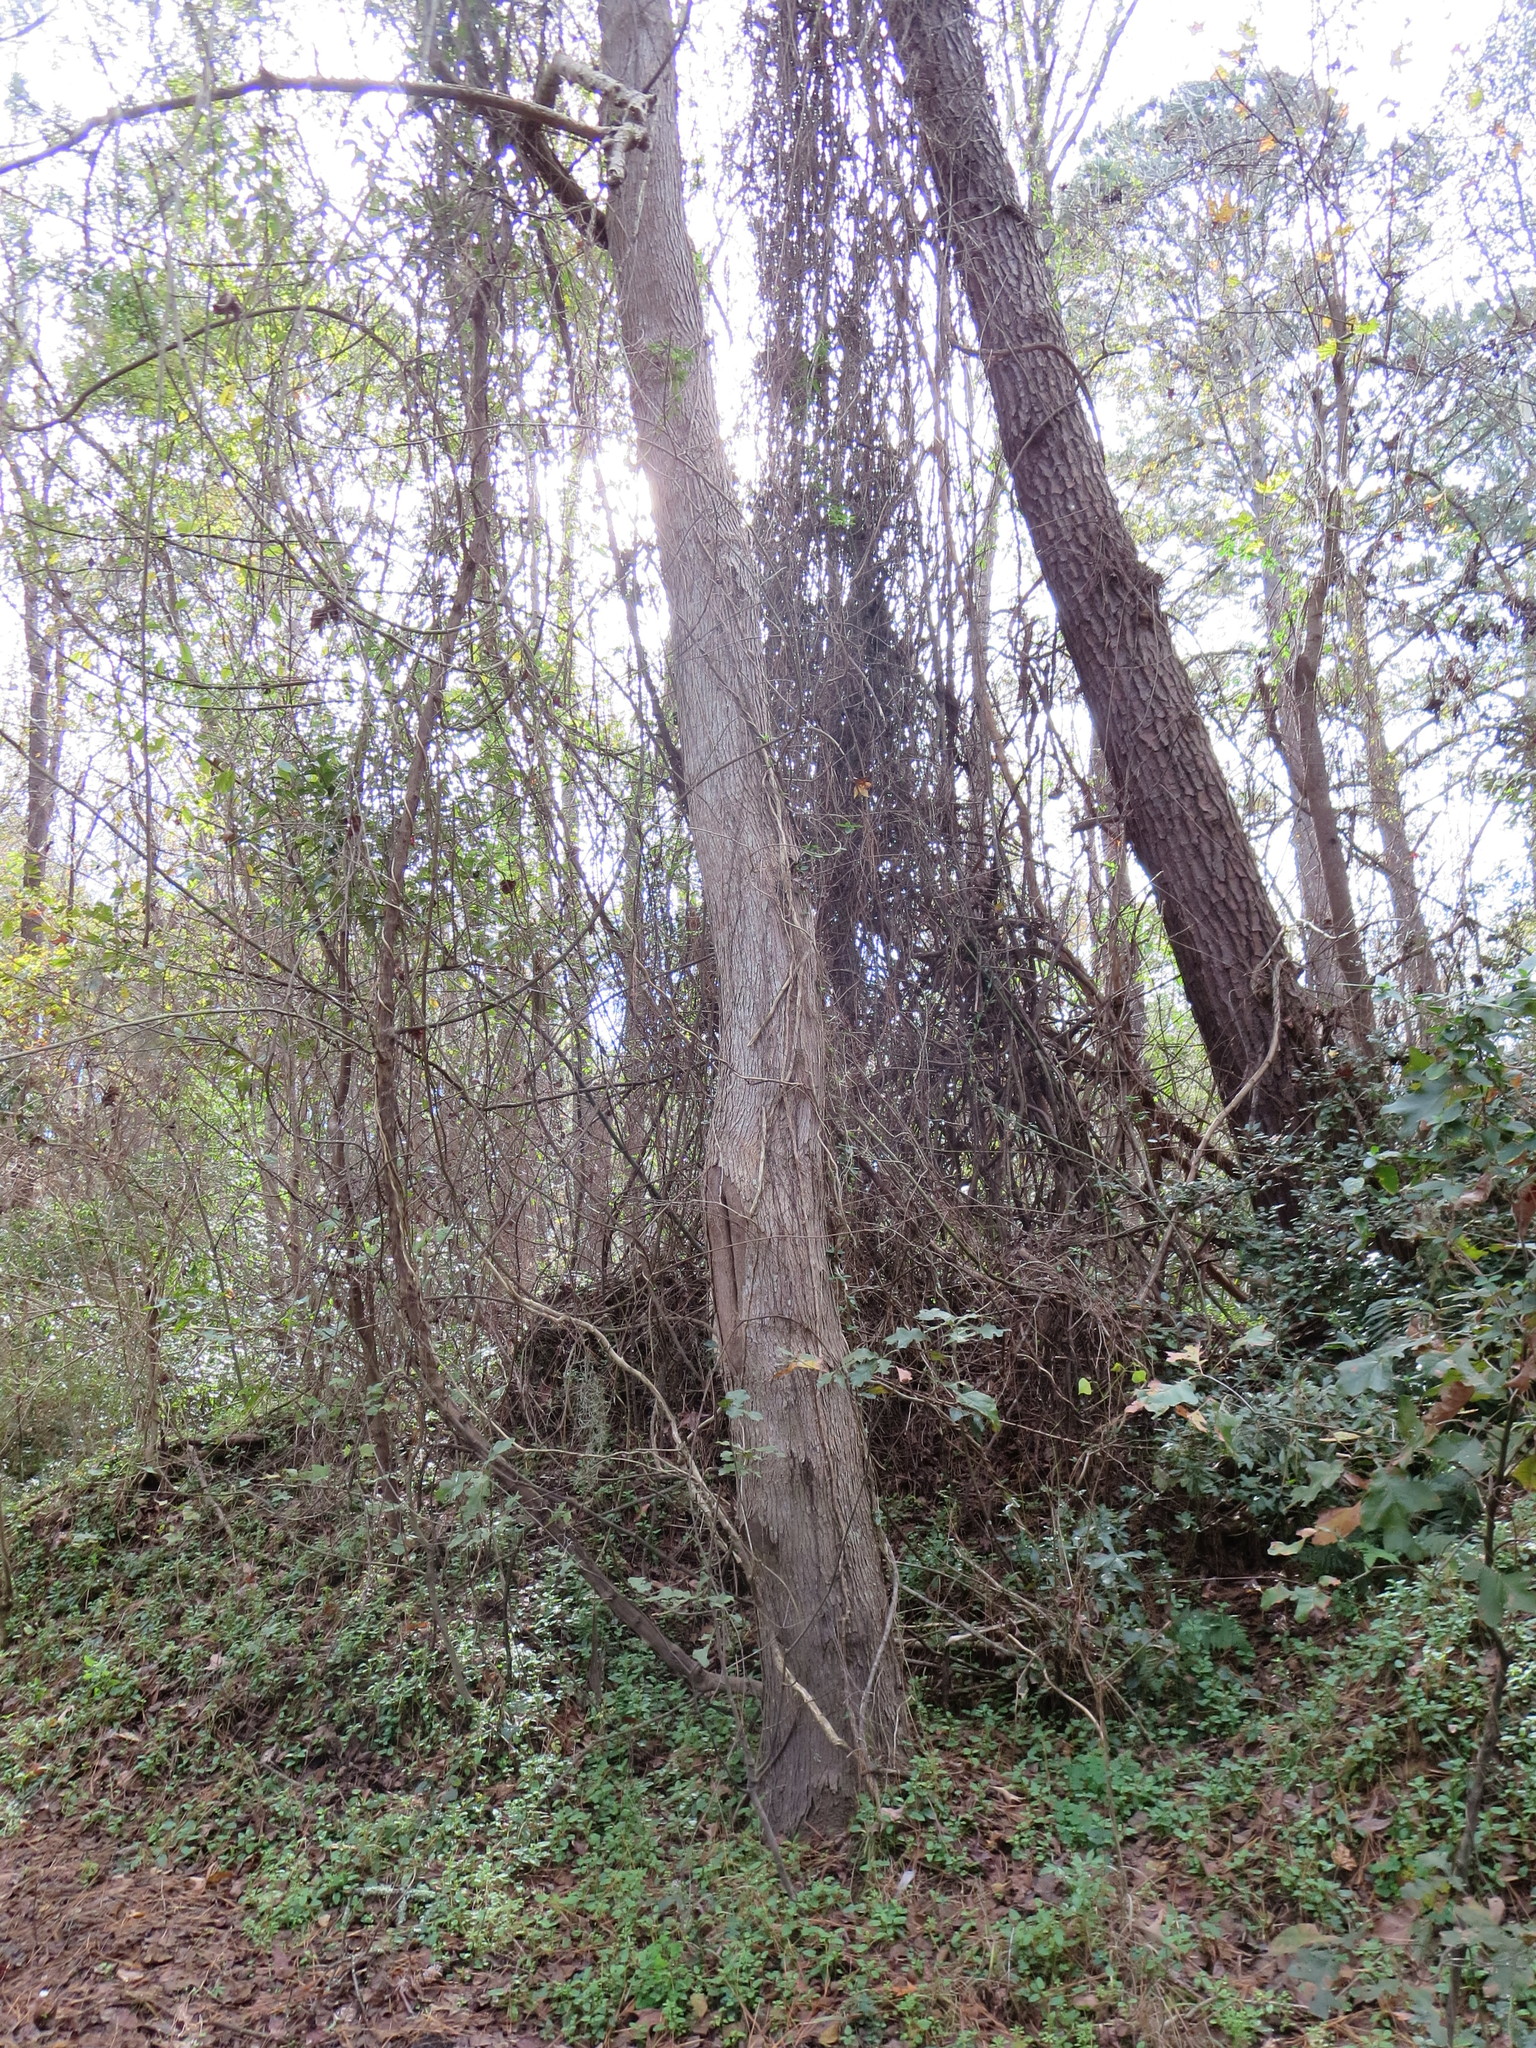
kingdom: Plantae
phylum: Tracheophyta
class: Magnoliopsida
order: Malpighiales
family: Euphorbiaceae
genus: Triadica
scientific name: Triadica sebifera
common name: Chinese tallow
